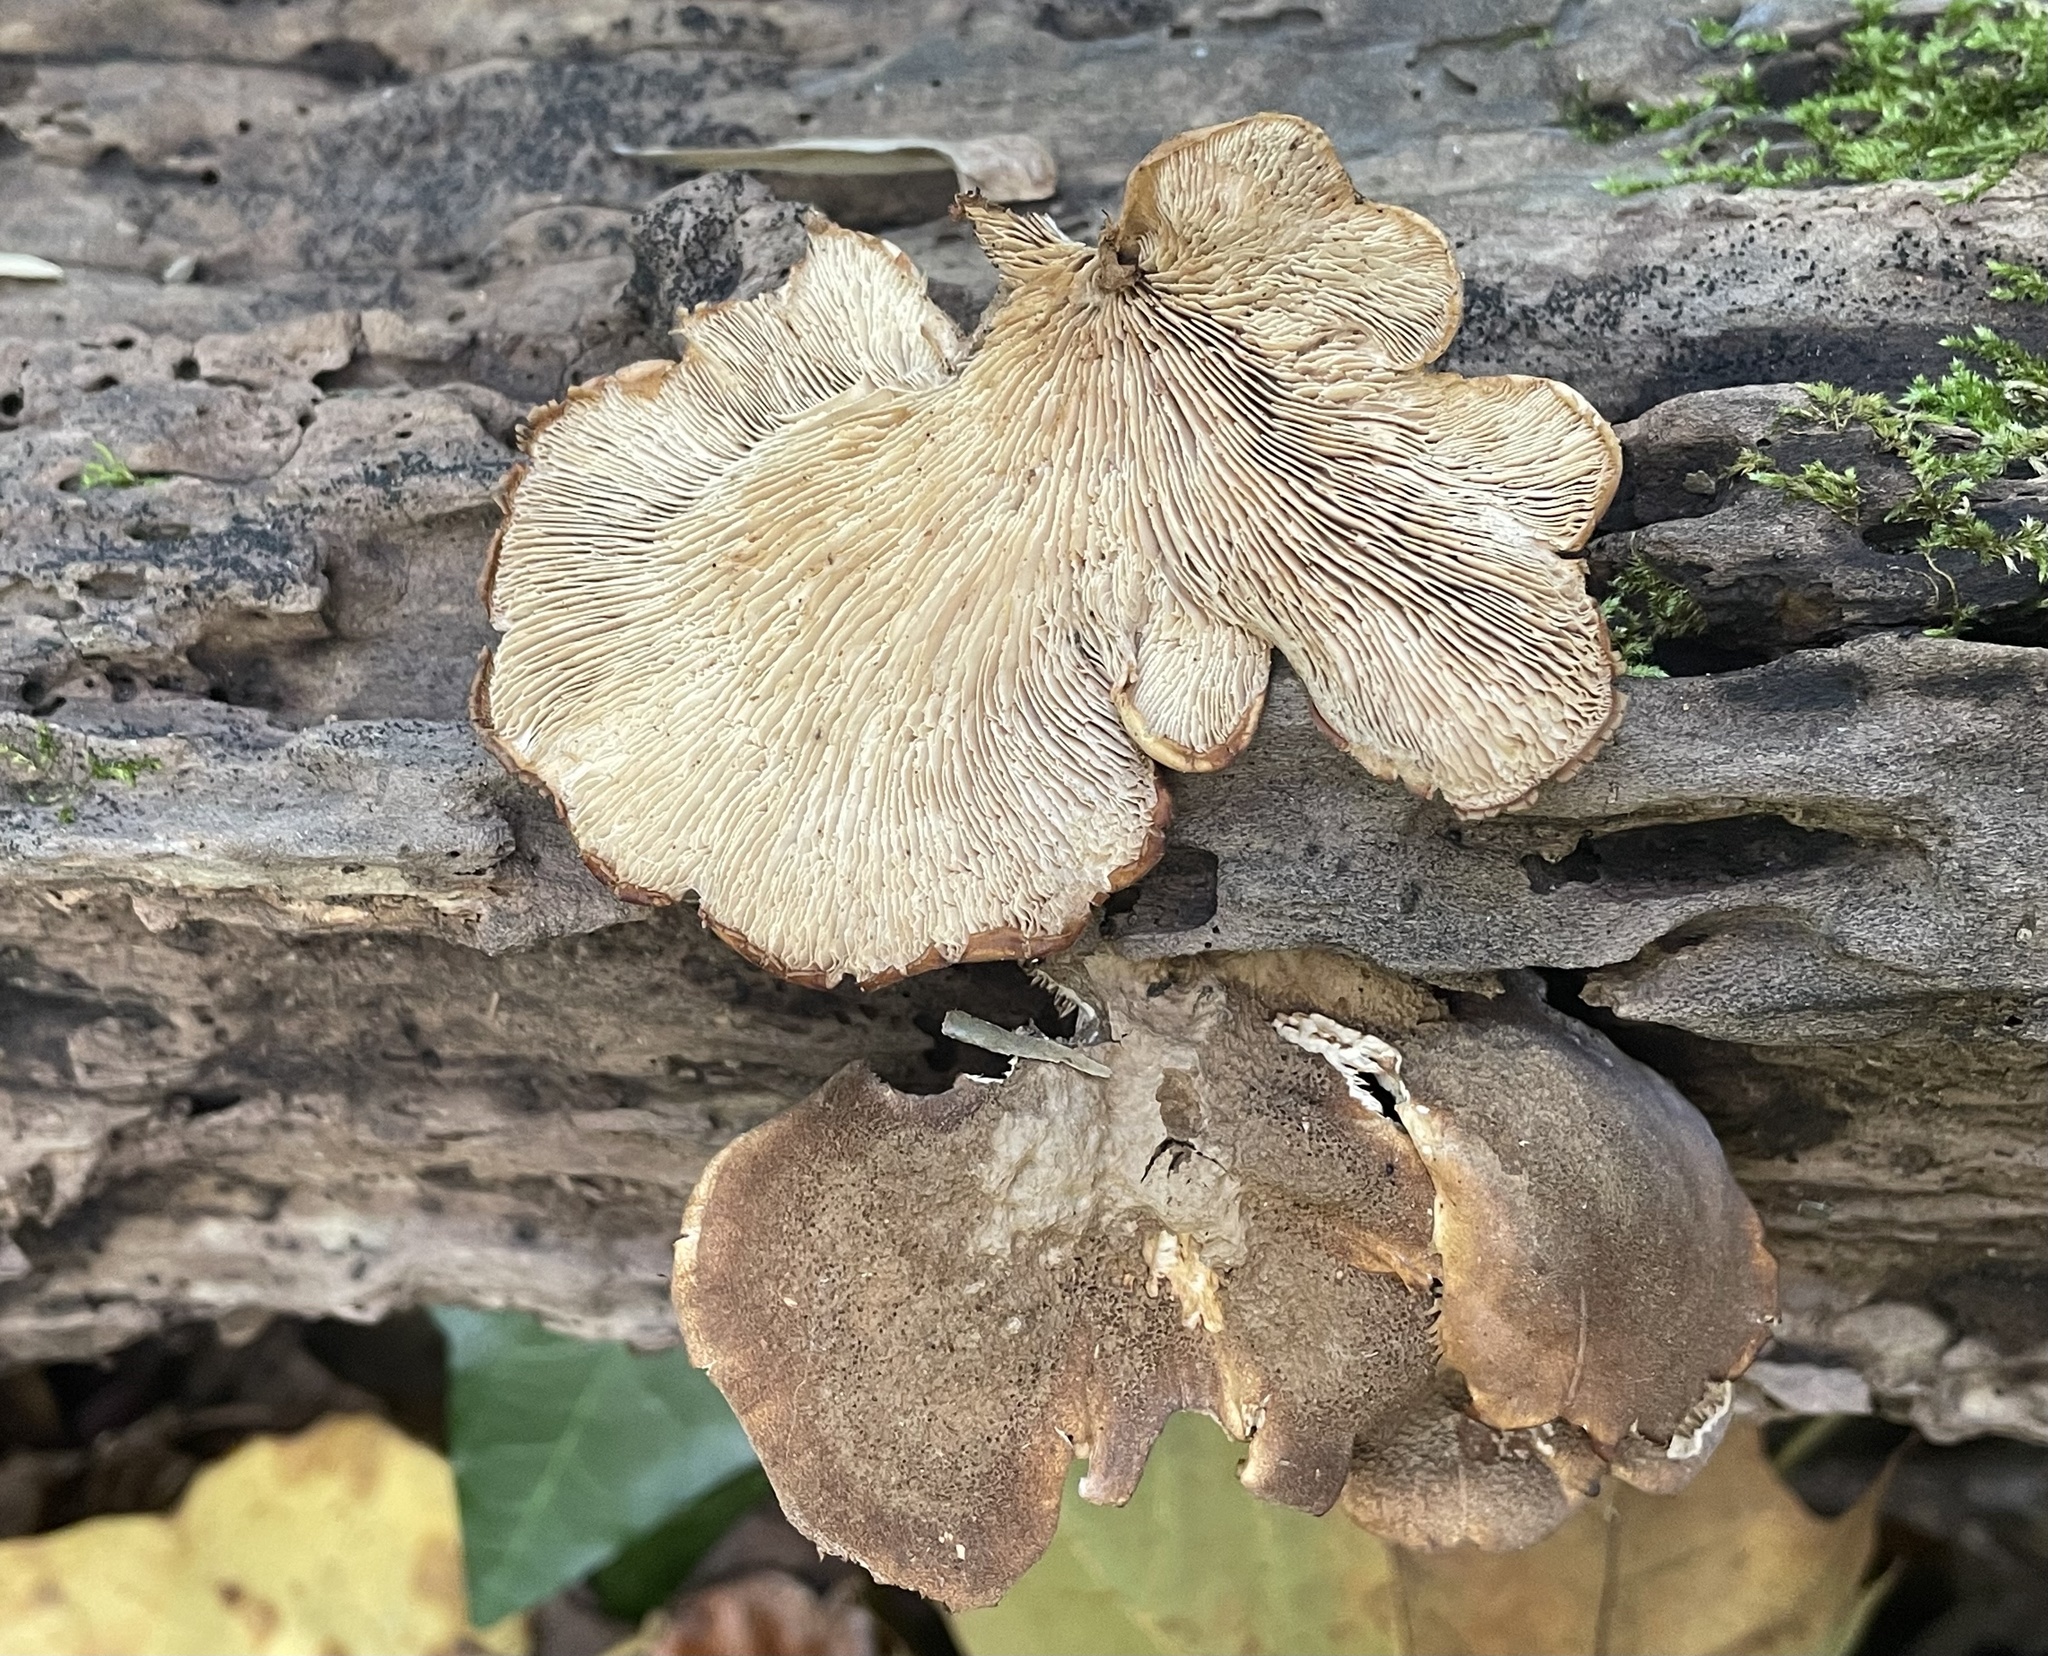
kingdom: Fungi
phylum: Basidiomycota
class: Agaricomycetes
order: Russulales
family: Auriscalpiaceae
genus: Lentinellus
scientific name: Lentinellus ursinus
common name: Bear lentinus
